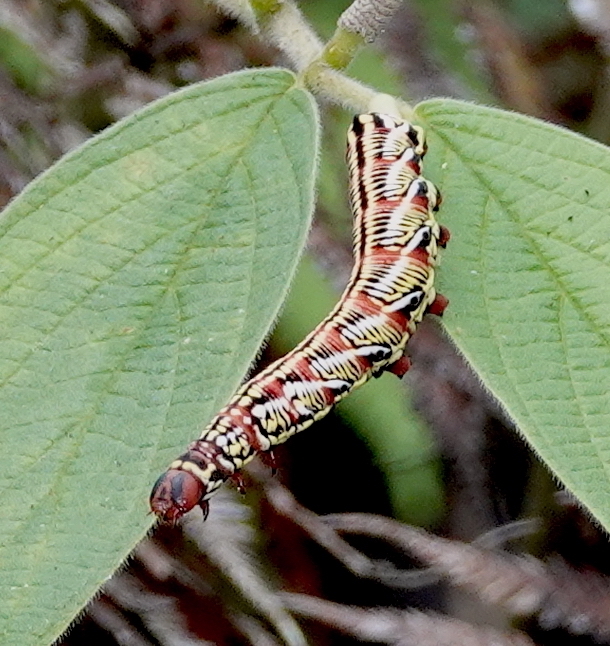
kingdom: Animalia
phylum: Arthropoda
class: Insecta
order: Lepidoptera
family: Sphingidae
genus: Eumorpha
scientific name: Eumorpha fasciatus
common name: Banded sphinx
